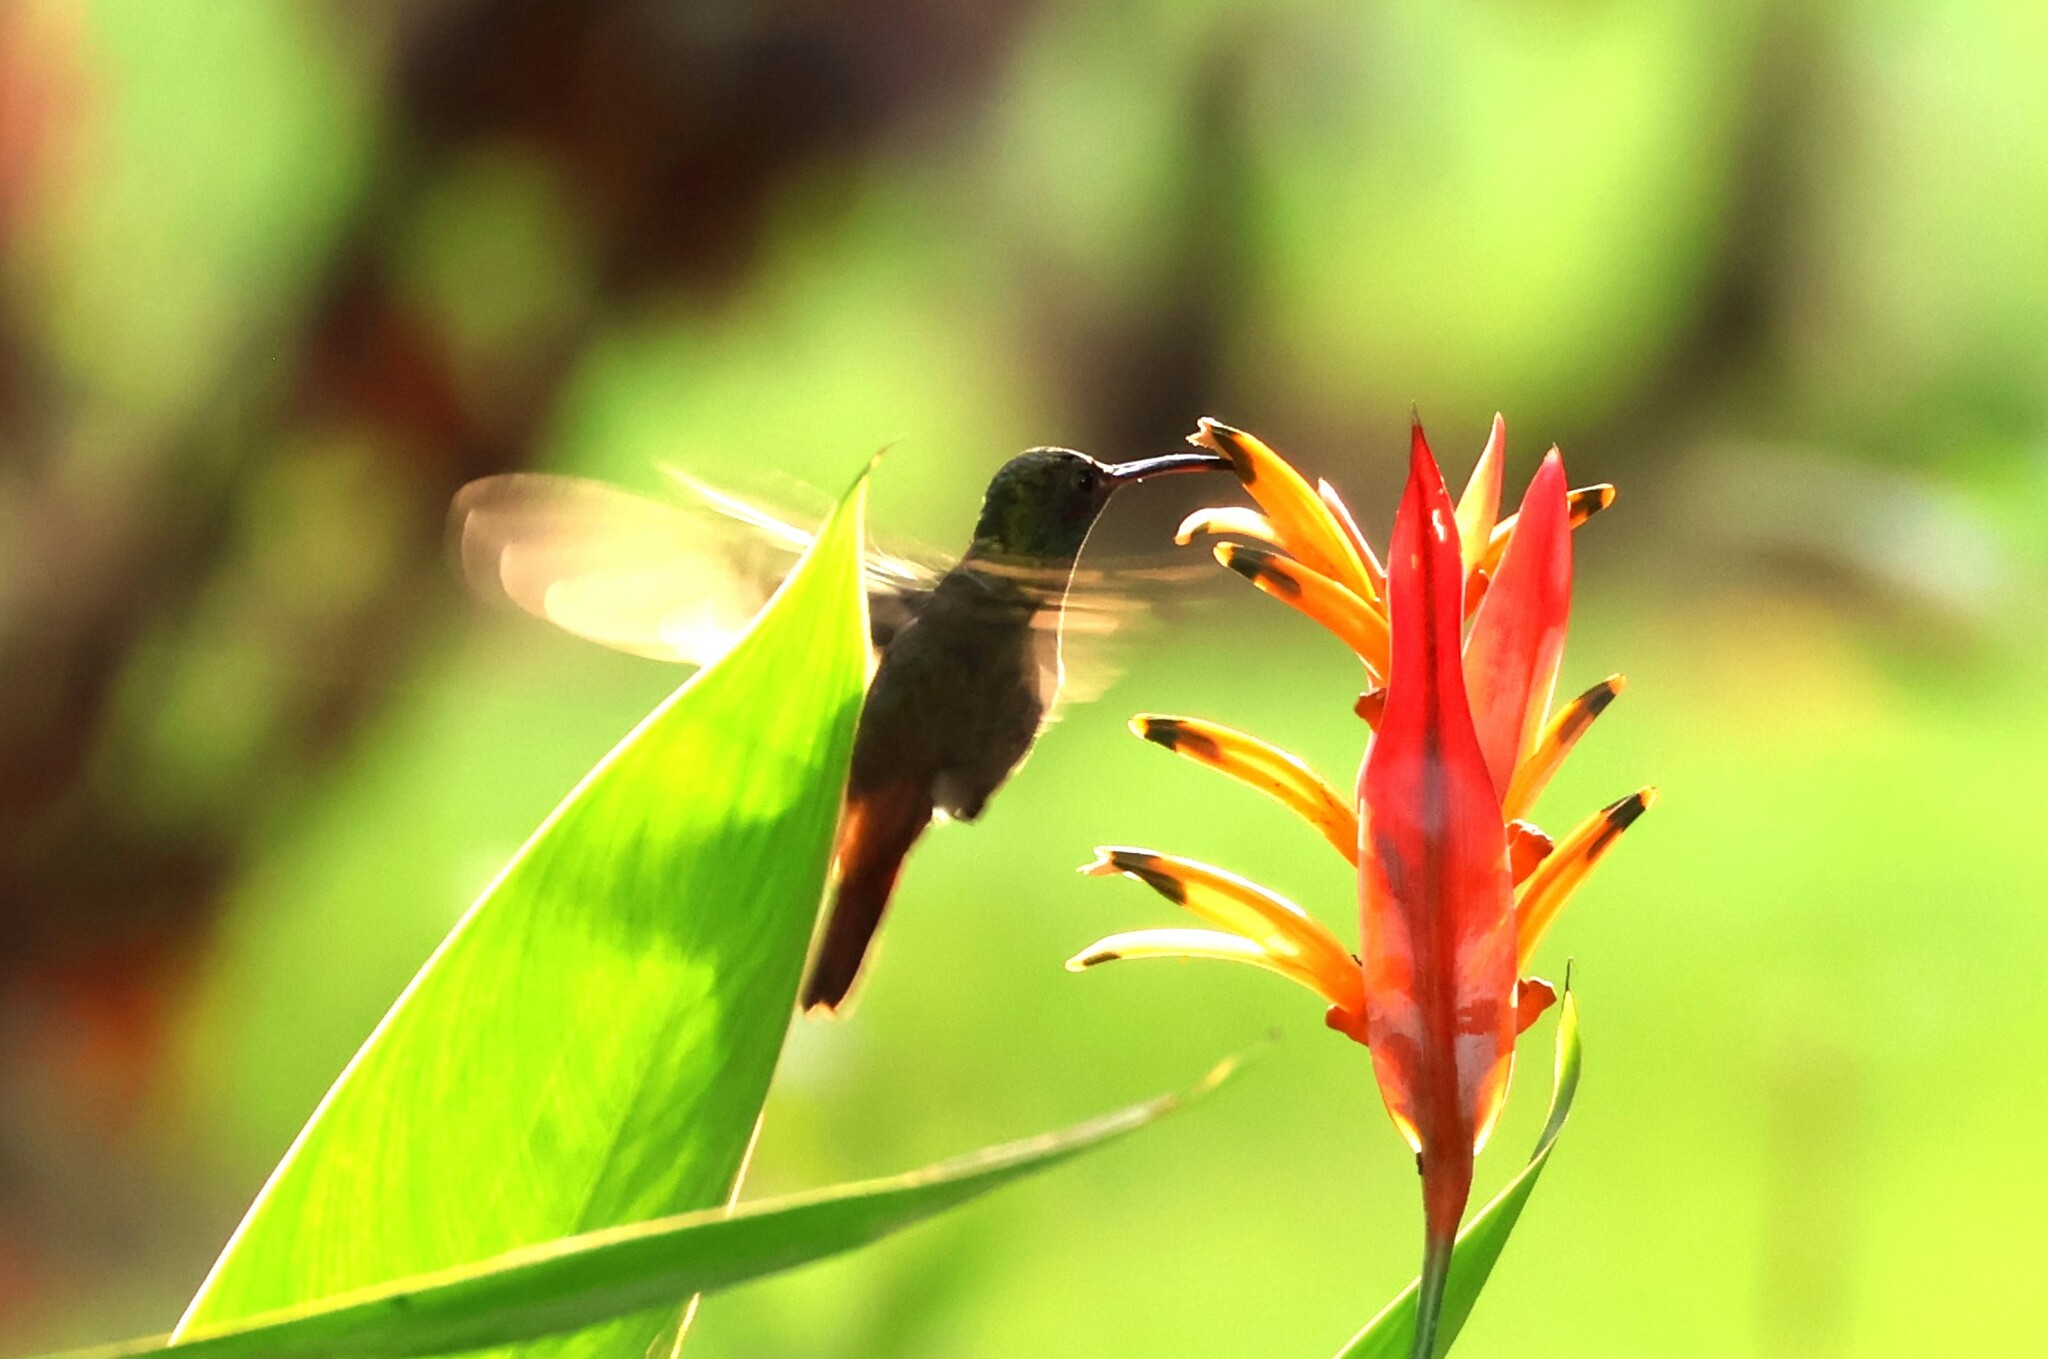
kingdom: Animalia
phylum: Chordata
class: Aves
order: Apodiformes
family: Trochilidae
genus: Amazilia
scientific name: Amazilia tzacatl
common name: Rufous-tailed hummingbird
